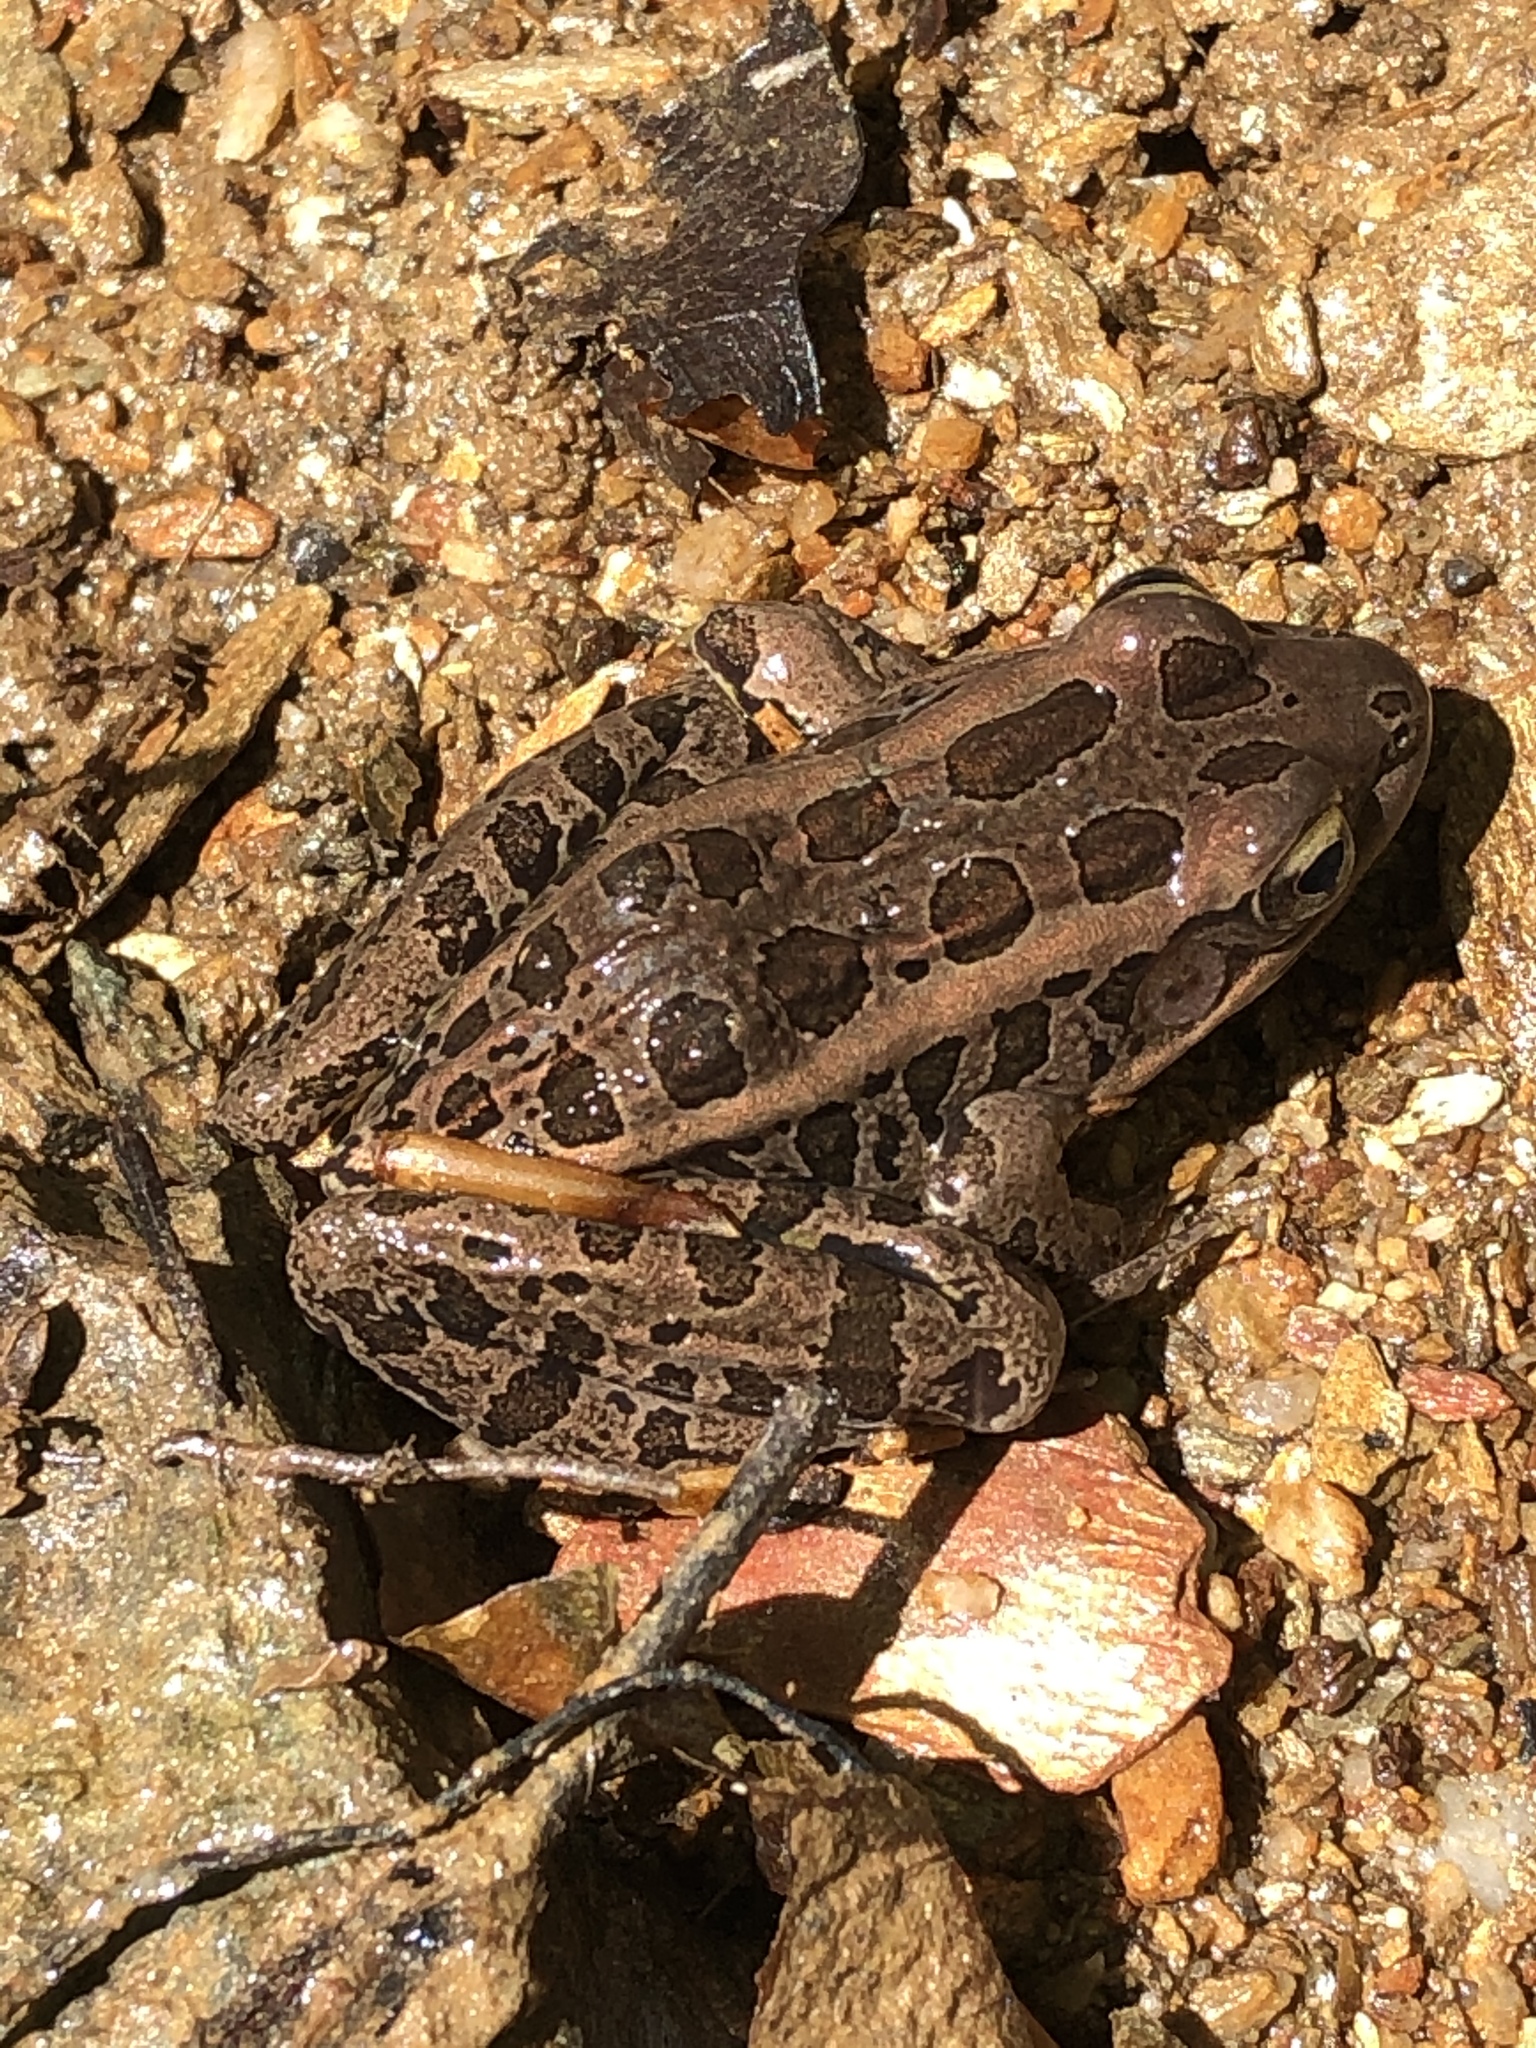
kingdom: Animalia
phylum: Chordata
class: Amphibia
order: Anura
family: Ranidae
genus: Lithobates
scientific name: Lithobates palustris
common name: Pickerel frog
